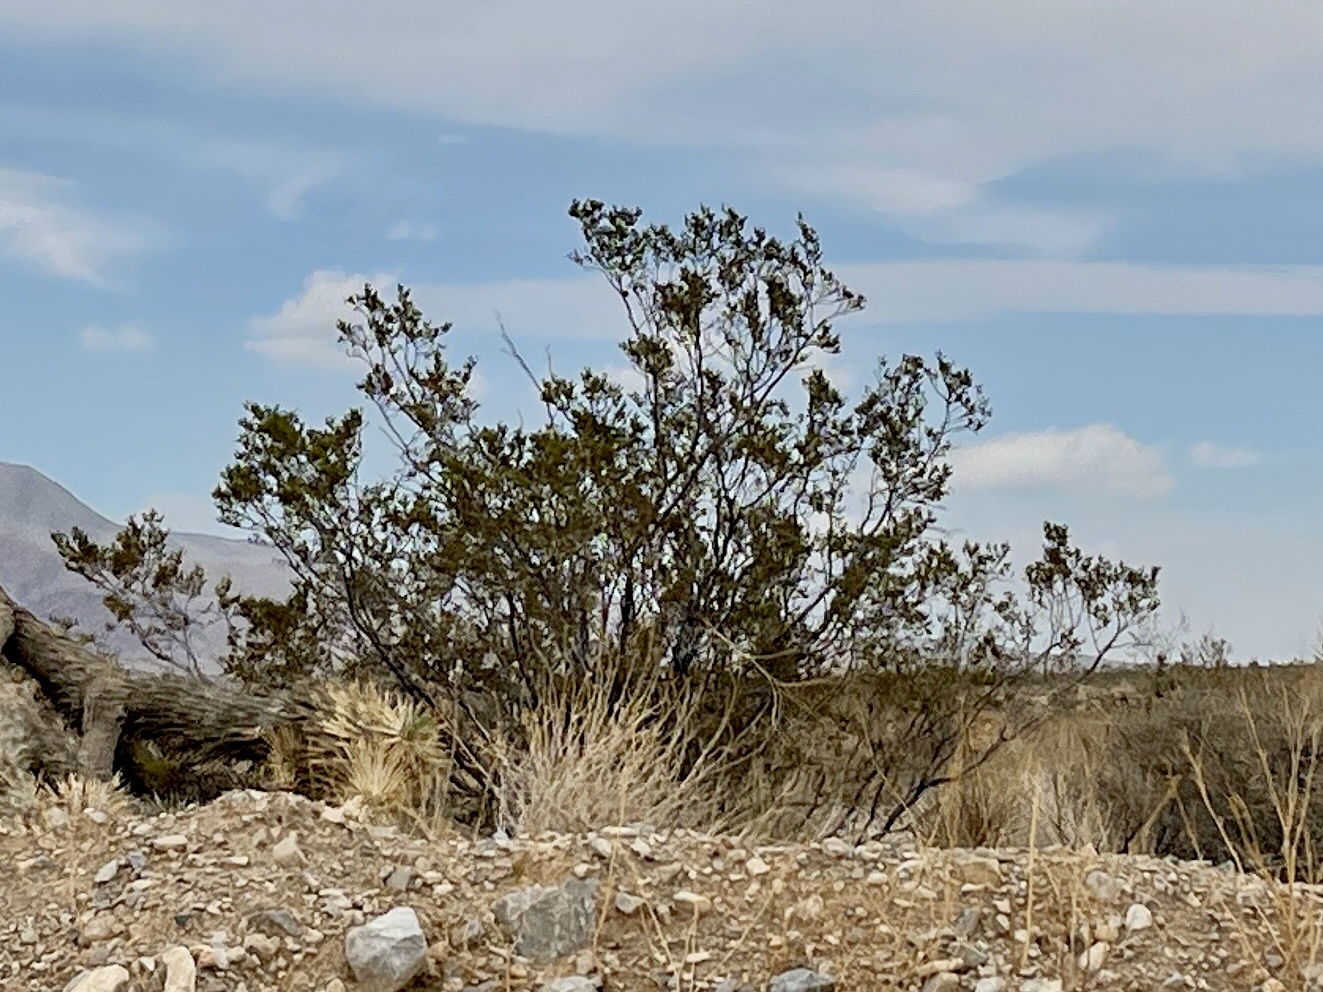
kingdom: Plantae
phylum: Tracheophyta
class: Magnoliopsida
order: Zygophyllales
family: Zygophyllaceae
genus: Larrea
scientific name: Larrea tridentata
